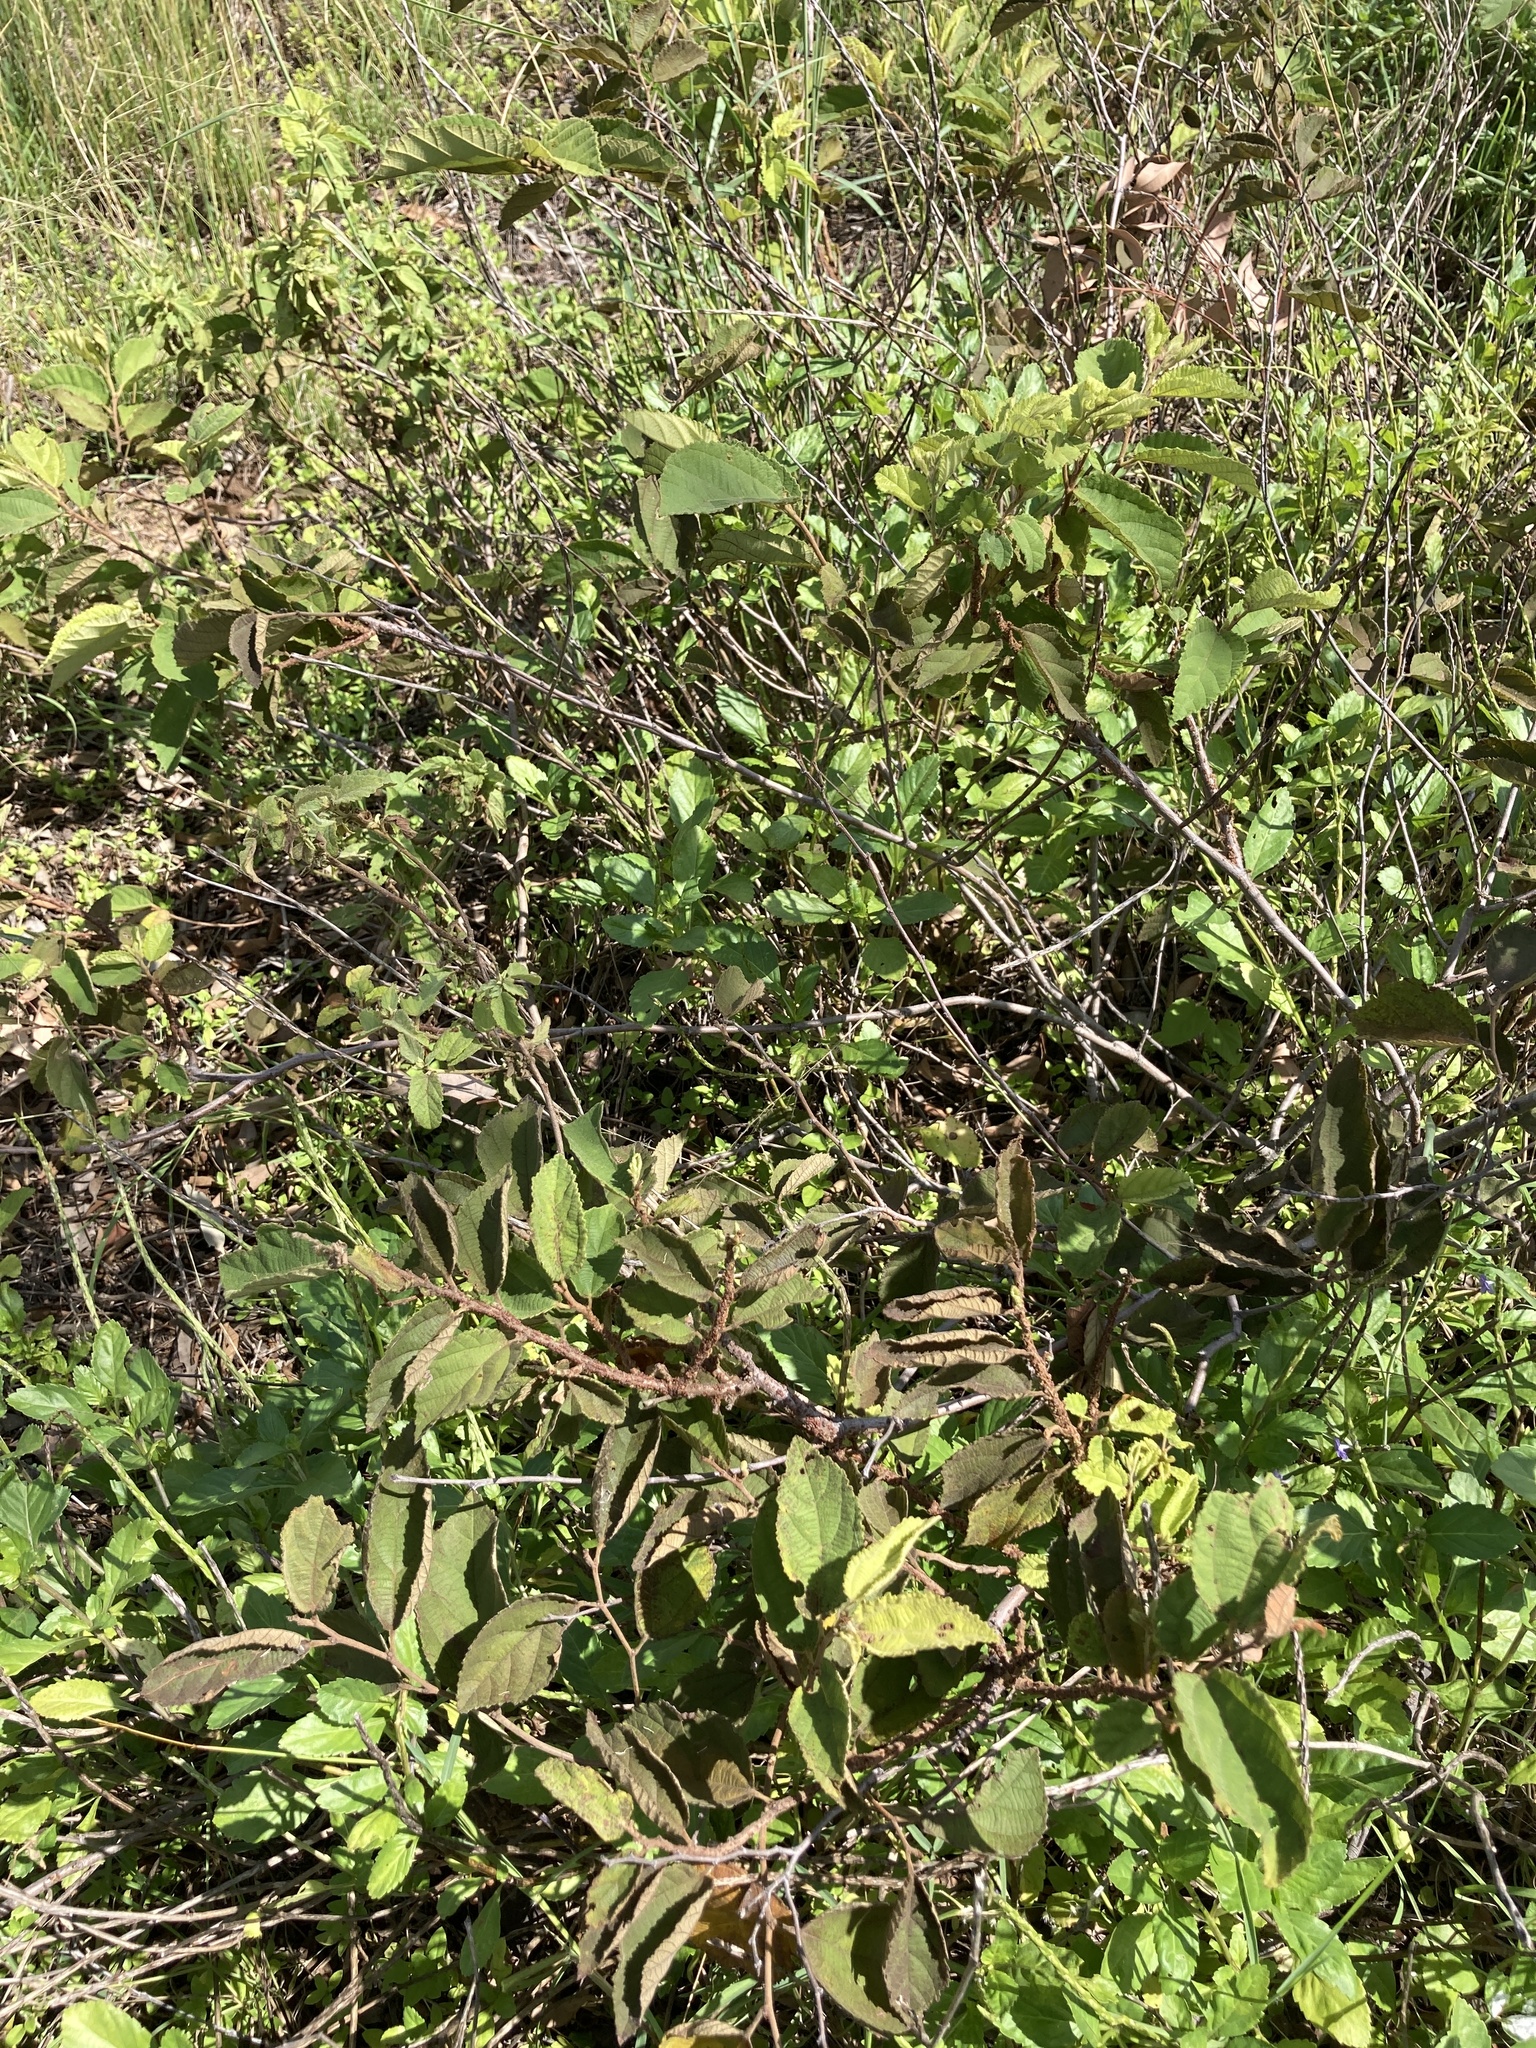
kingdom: Plantae
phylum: Tracheophyta
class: Magnoliopsida
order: Malvales
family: Malvaceae
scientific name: Malvaceae
